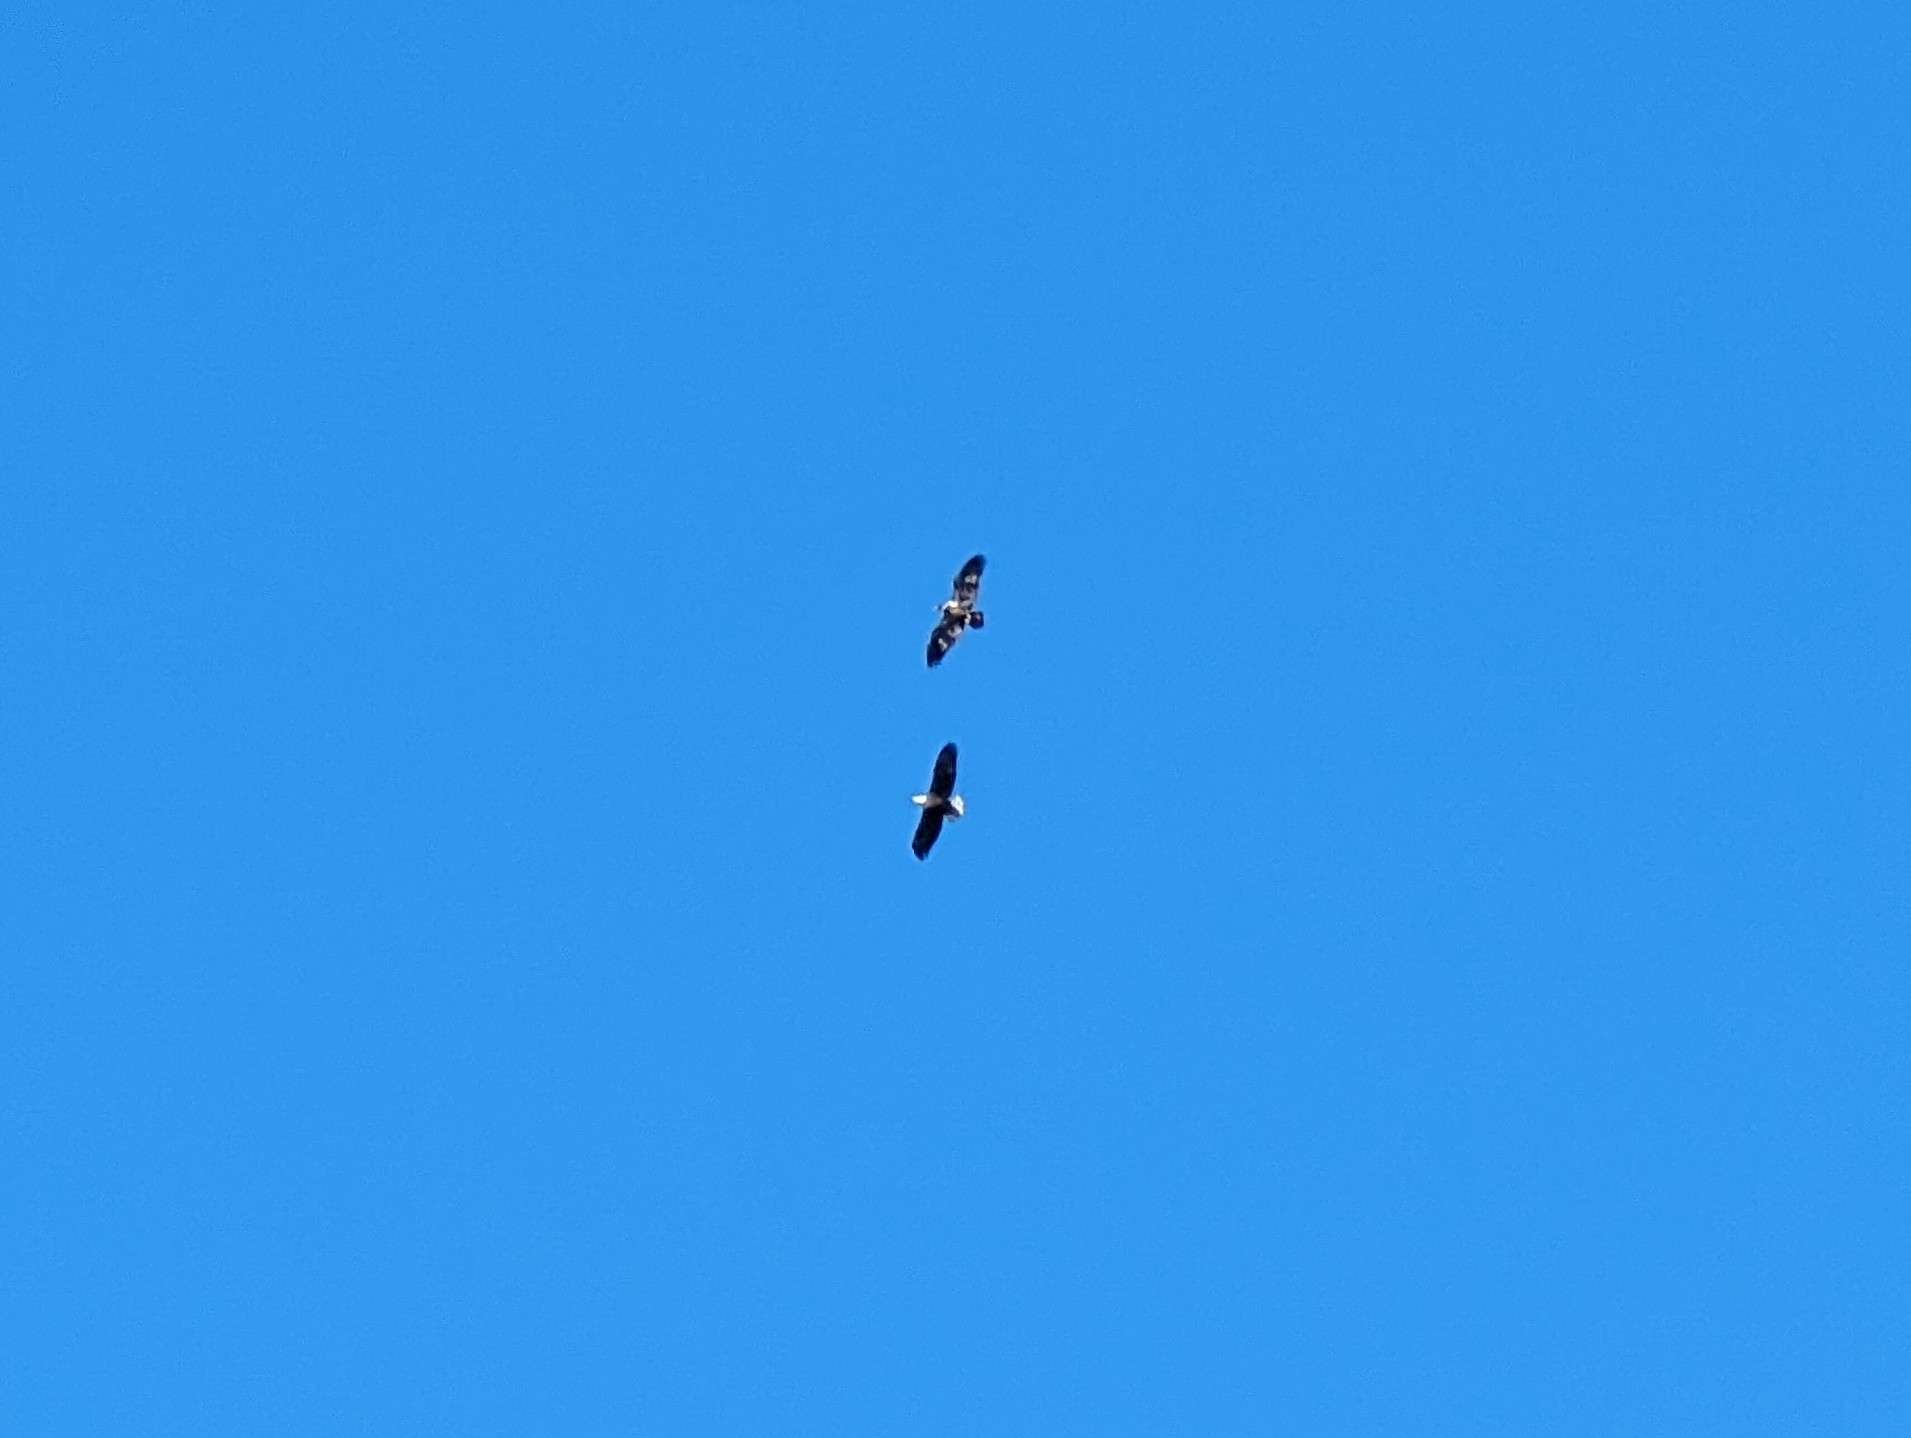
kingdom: Animalia
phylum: Chordata
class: Aves
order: Accipitriformes
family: Accipitridae
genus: Haliaeetus
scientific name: Haliaeetus leucocephalus
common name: Bald eagle
